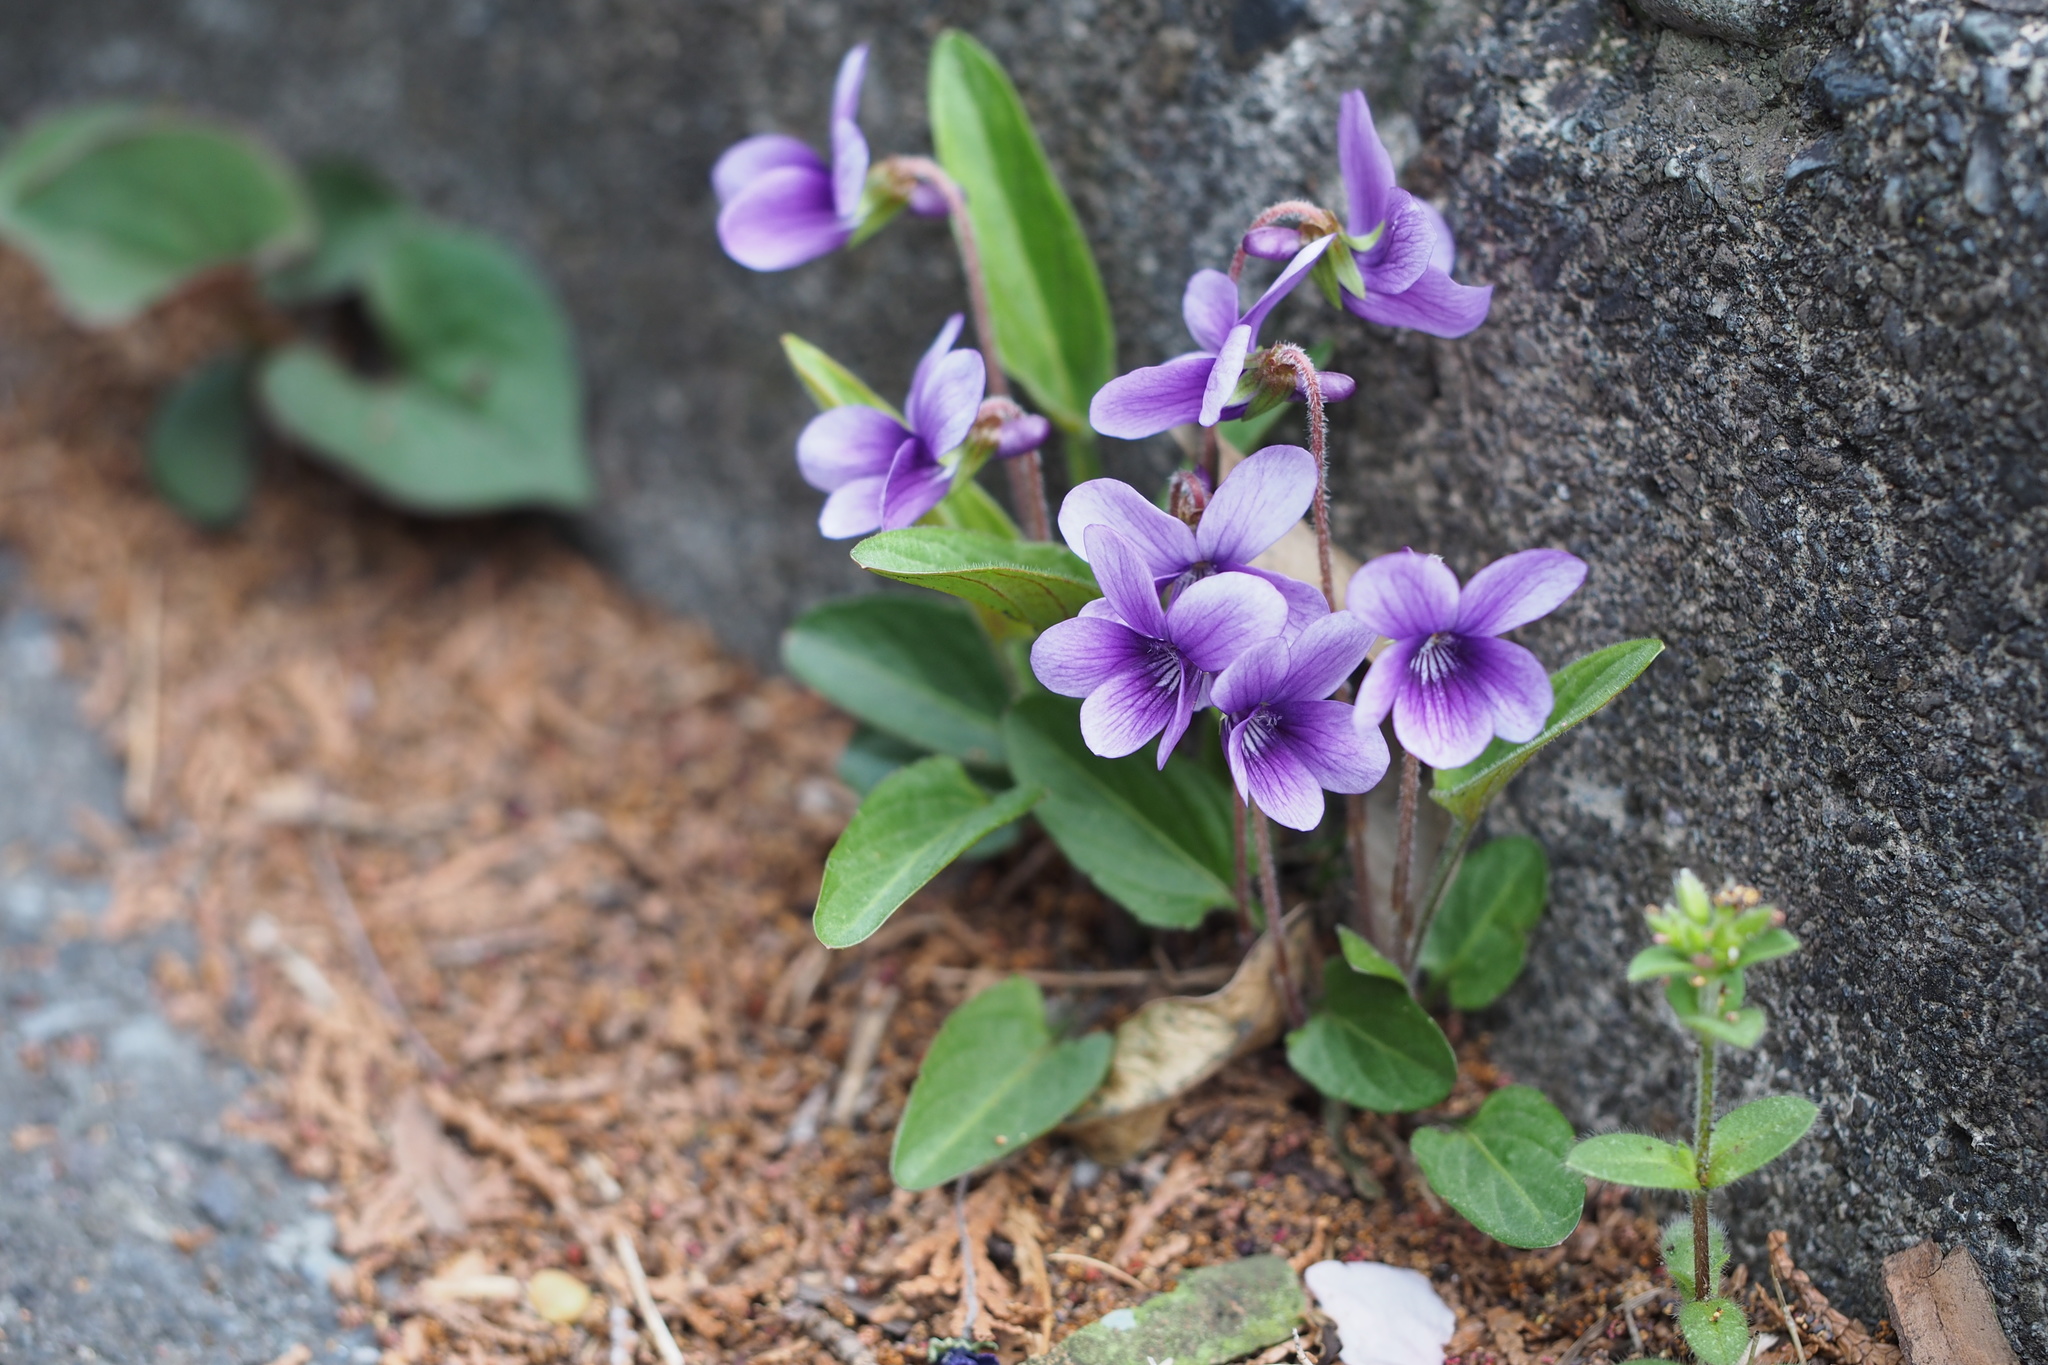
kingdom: Plantae
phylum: Tracheophyta
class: Magnoliopsida
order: Malpighiales
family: Violaceae
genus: Viola
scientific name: Viola mandshurica
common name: Manchuria violet
